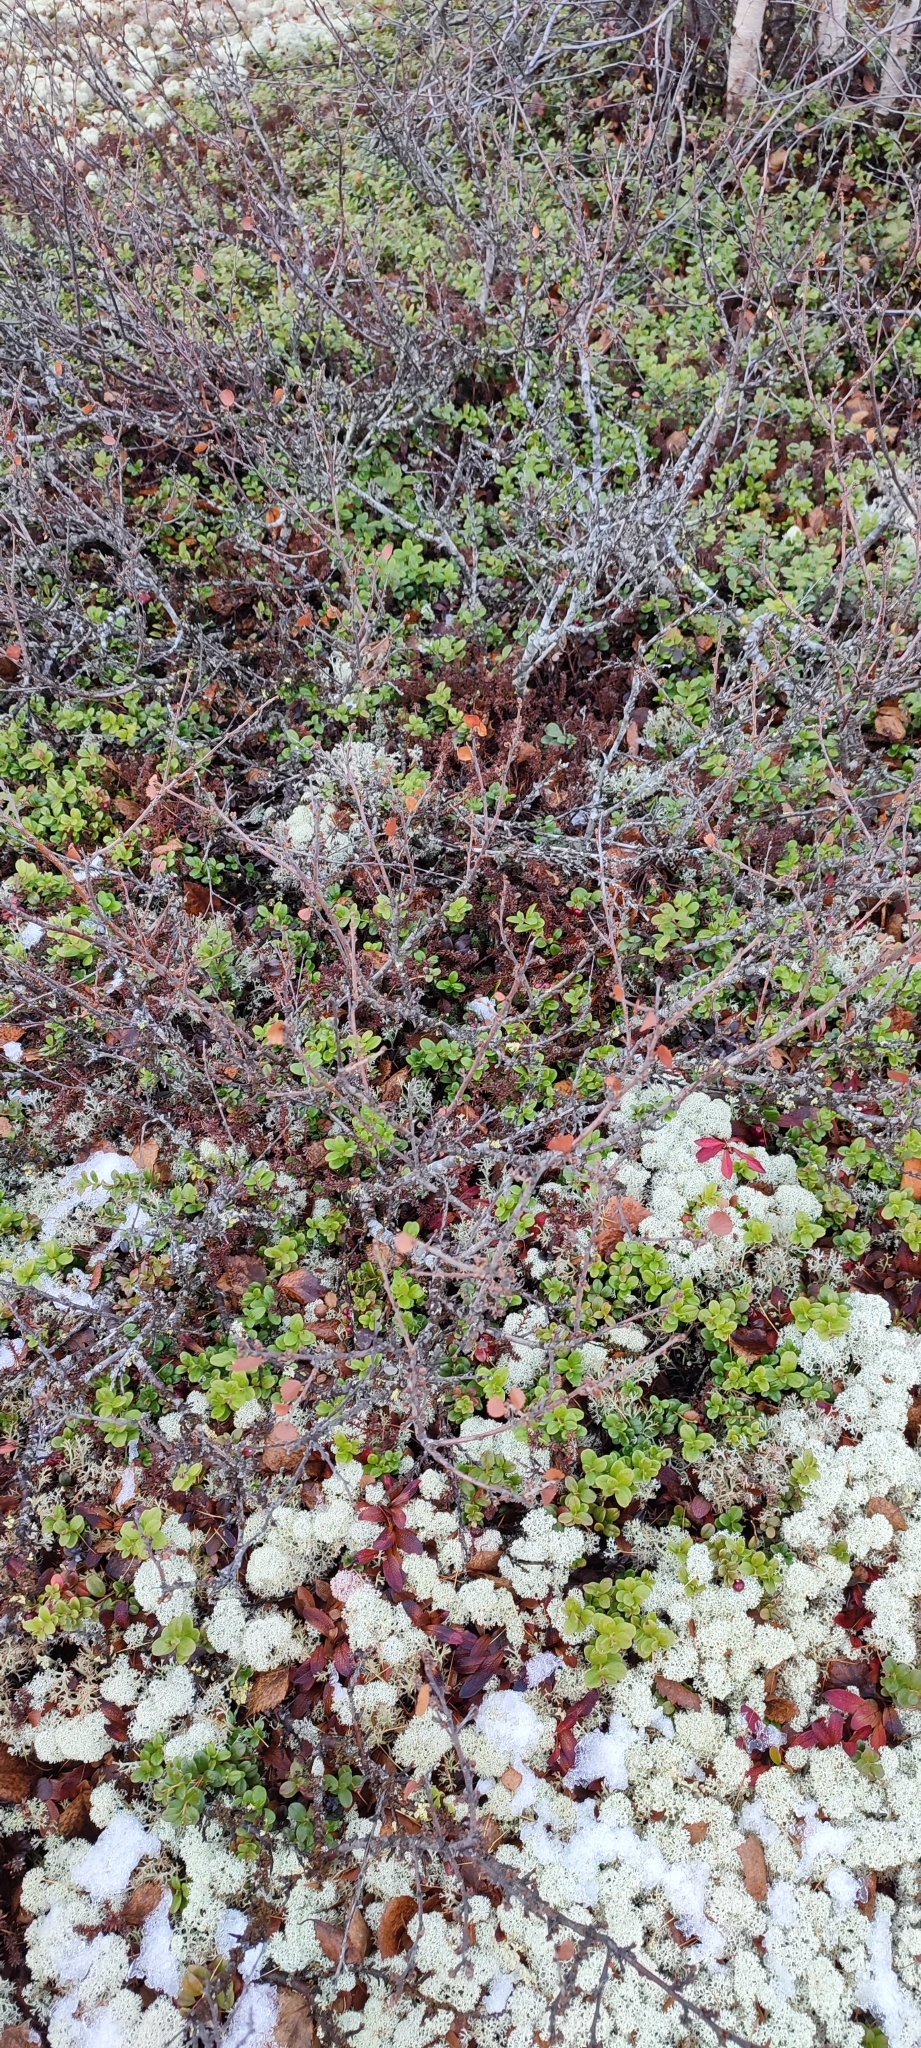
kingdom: Plantae
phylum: Tracheophyta
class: Magnoliopsida
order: Fagales
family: Betulaceae
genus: Betula
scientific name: Betula nana
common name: Arctic dwarf birch
